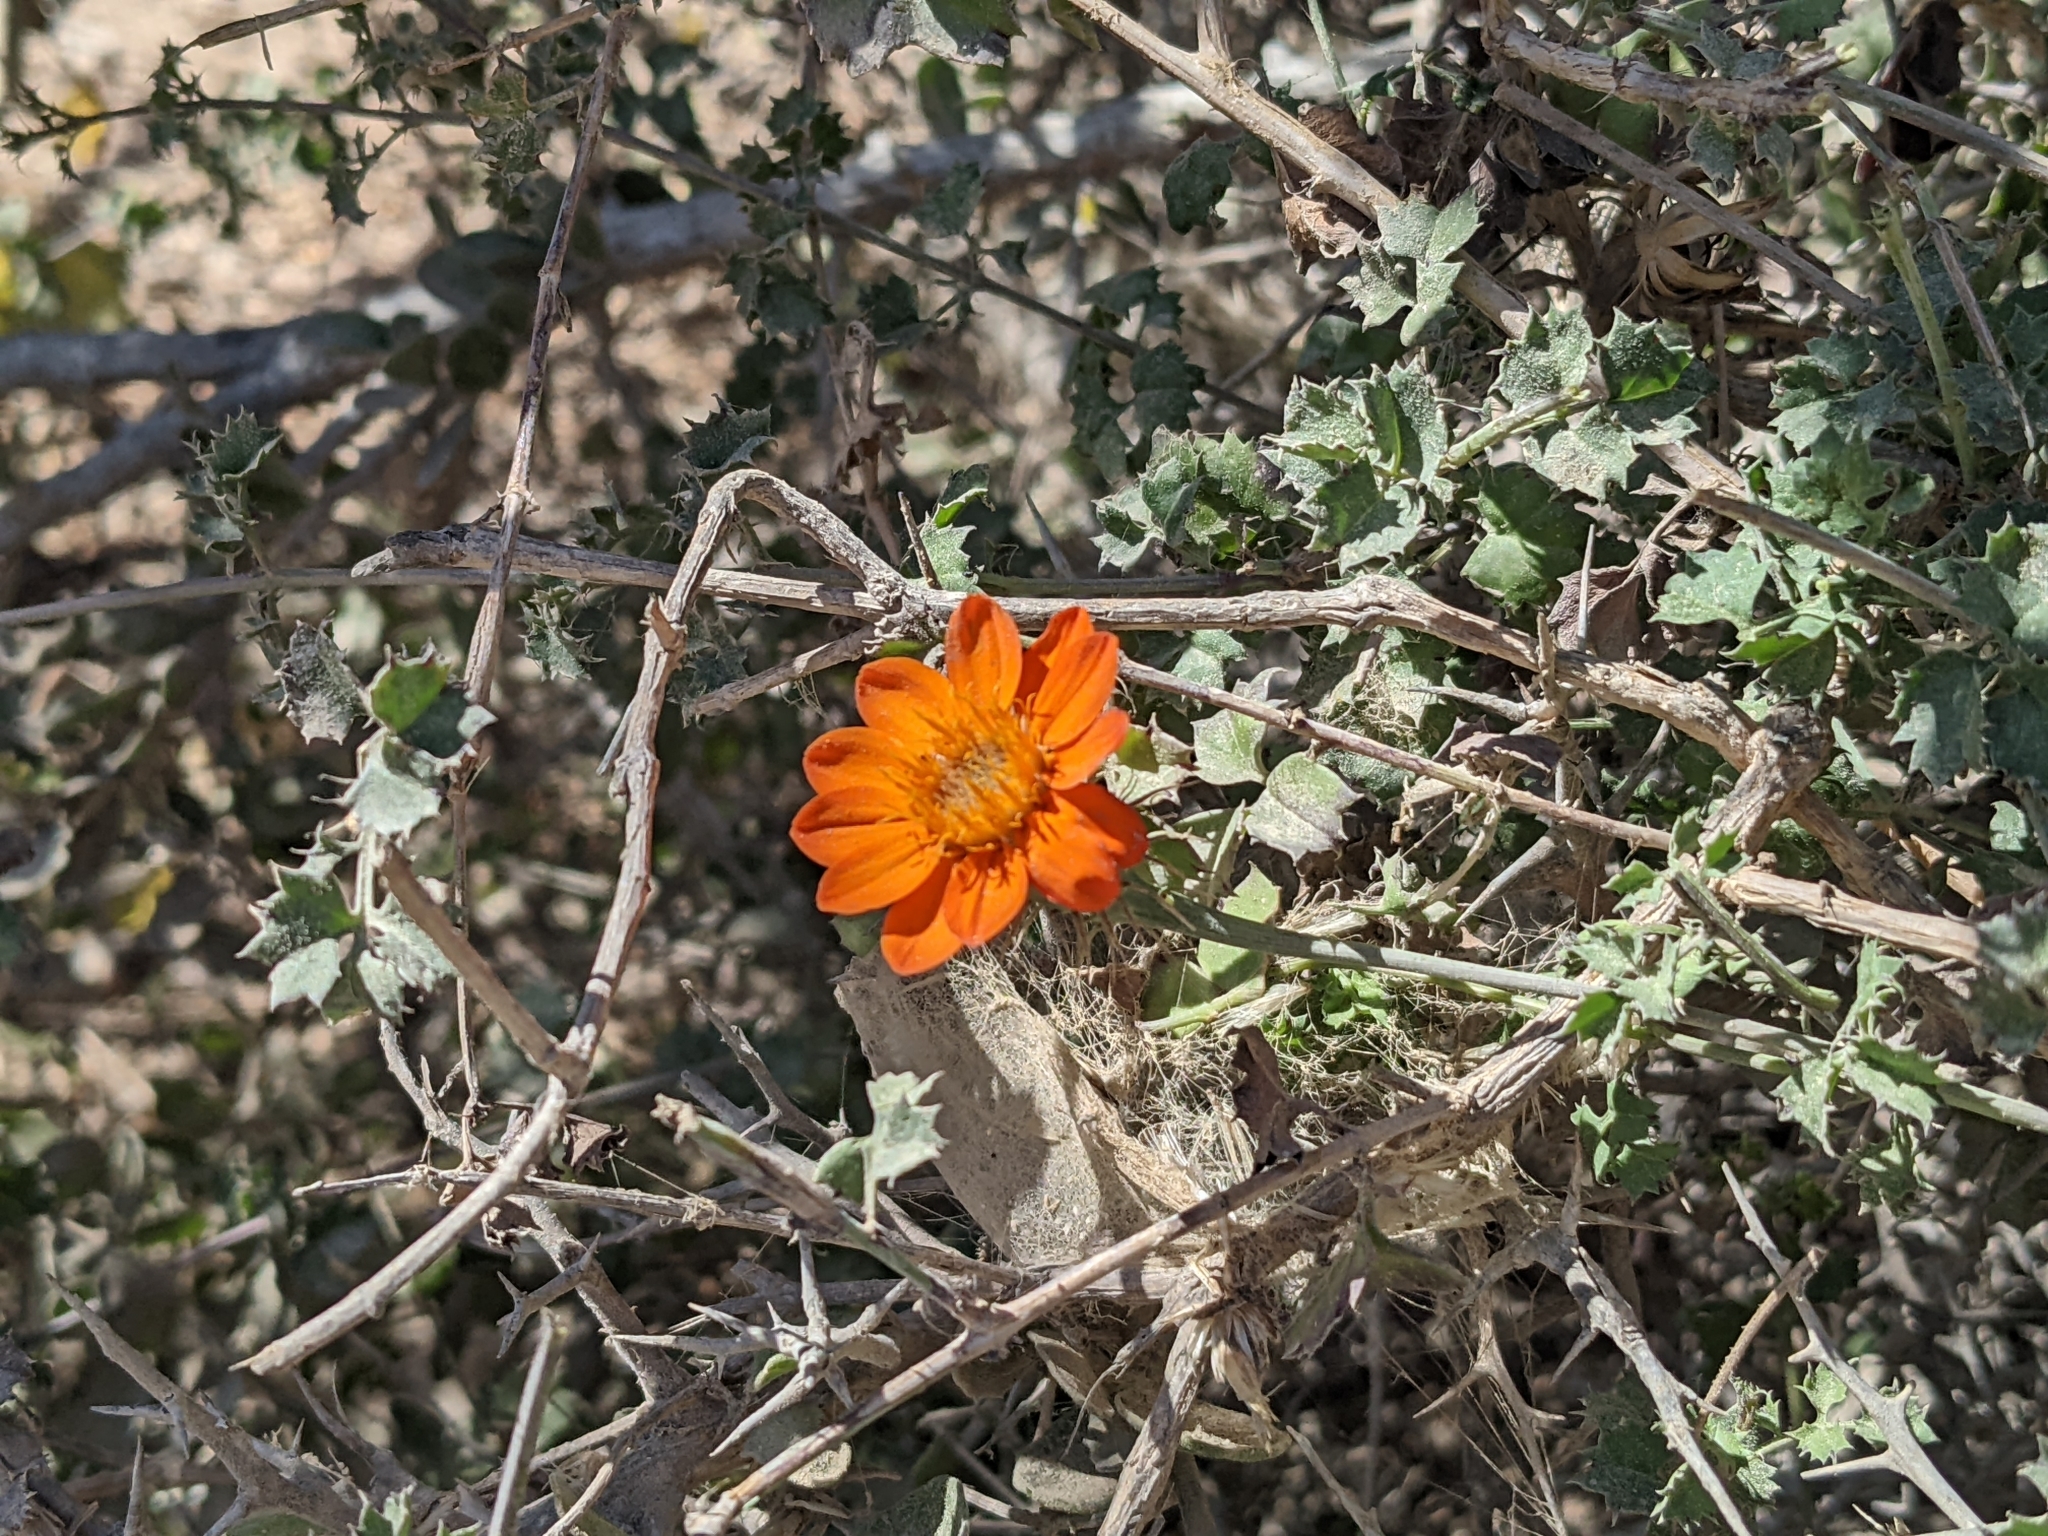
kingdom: Plantae
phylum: Tracheophyta
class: Magnoliopsida
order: Asterales
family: Asteraceae
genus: Adenophyllum
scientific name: Adenophyllum speciosum
